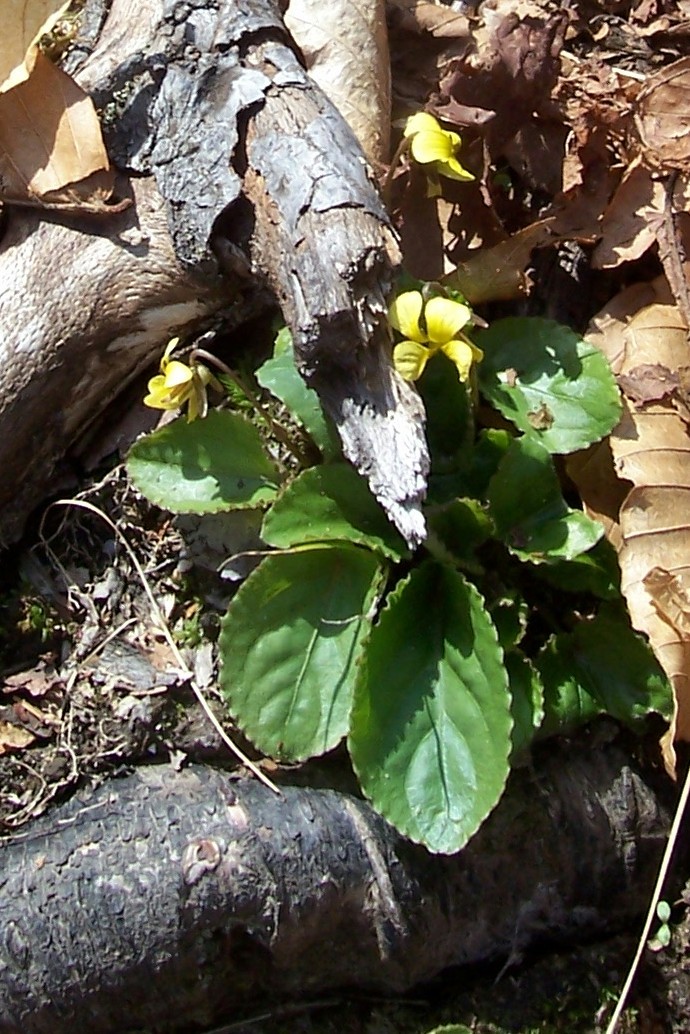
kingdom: Plantae
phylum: Tracheophyta
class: Magnoliopsida
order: Malpighiales
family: Violaceae
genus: Viola
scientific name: Viola rotundifolia
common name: Early yellow violet
